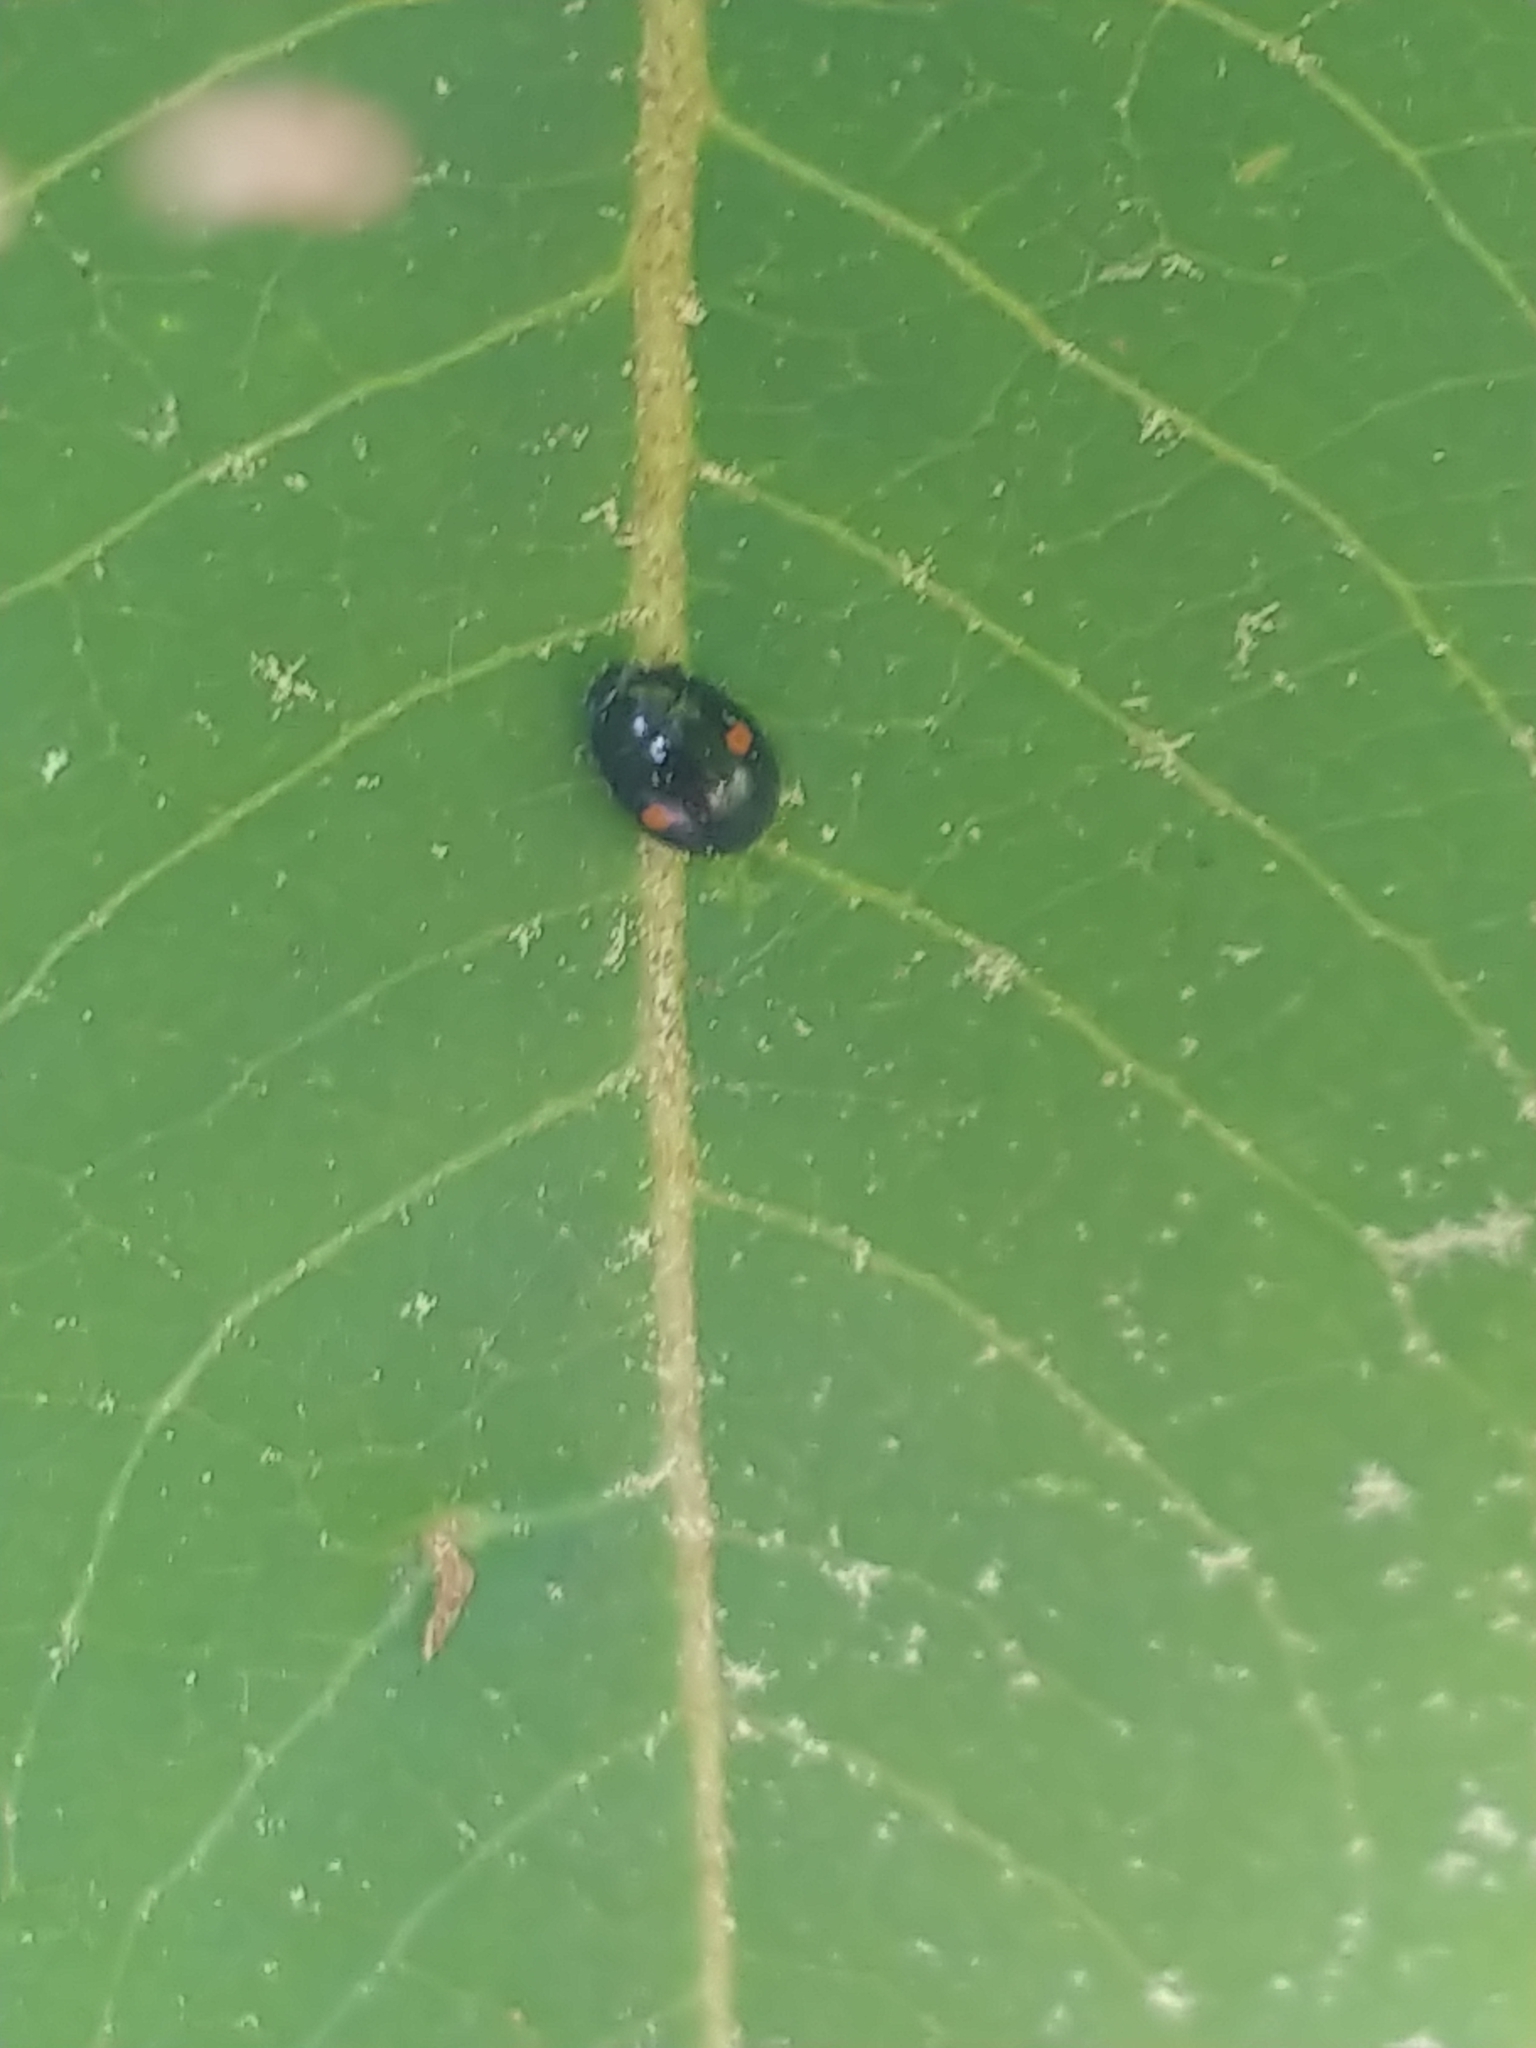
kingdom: Animalia
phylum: Arthropoda
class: Insecta
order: Coleoptera
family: Coccinellidae
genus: Chilocorus
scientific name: Chilocorus stigma
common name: Twicestabbed lady beetle
